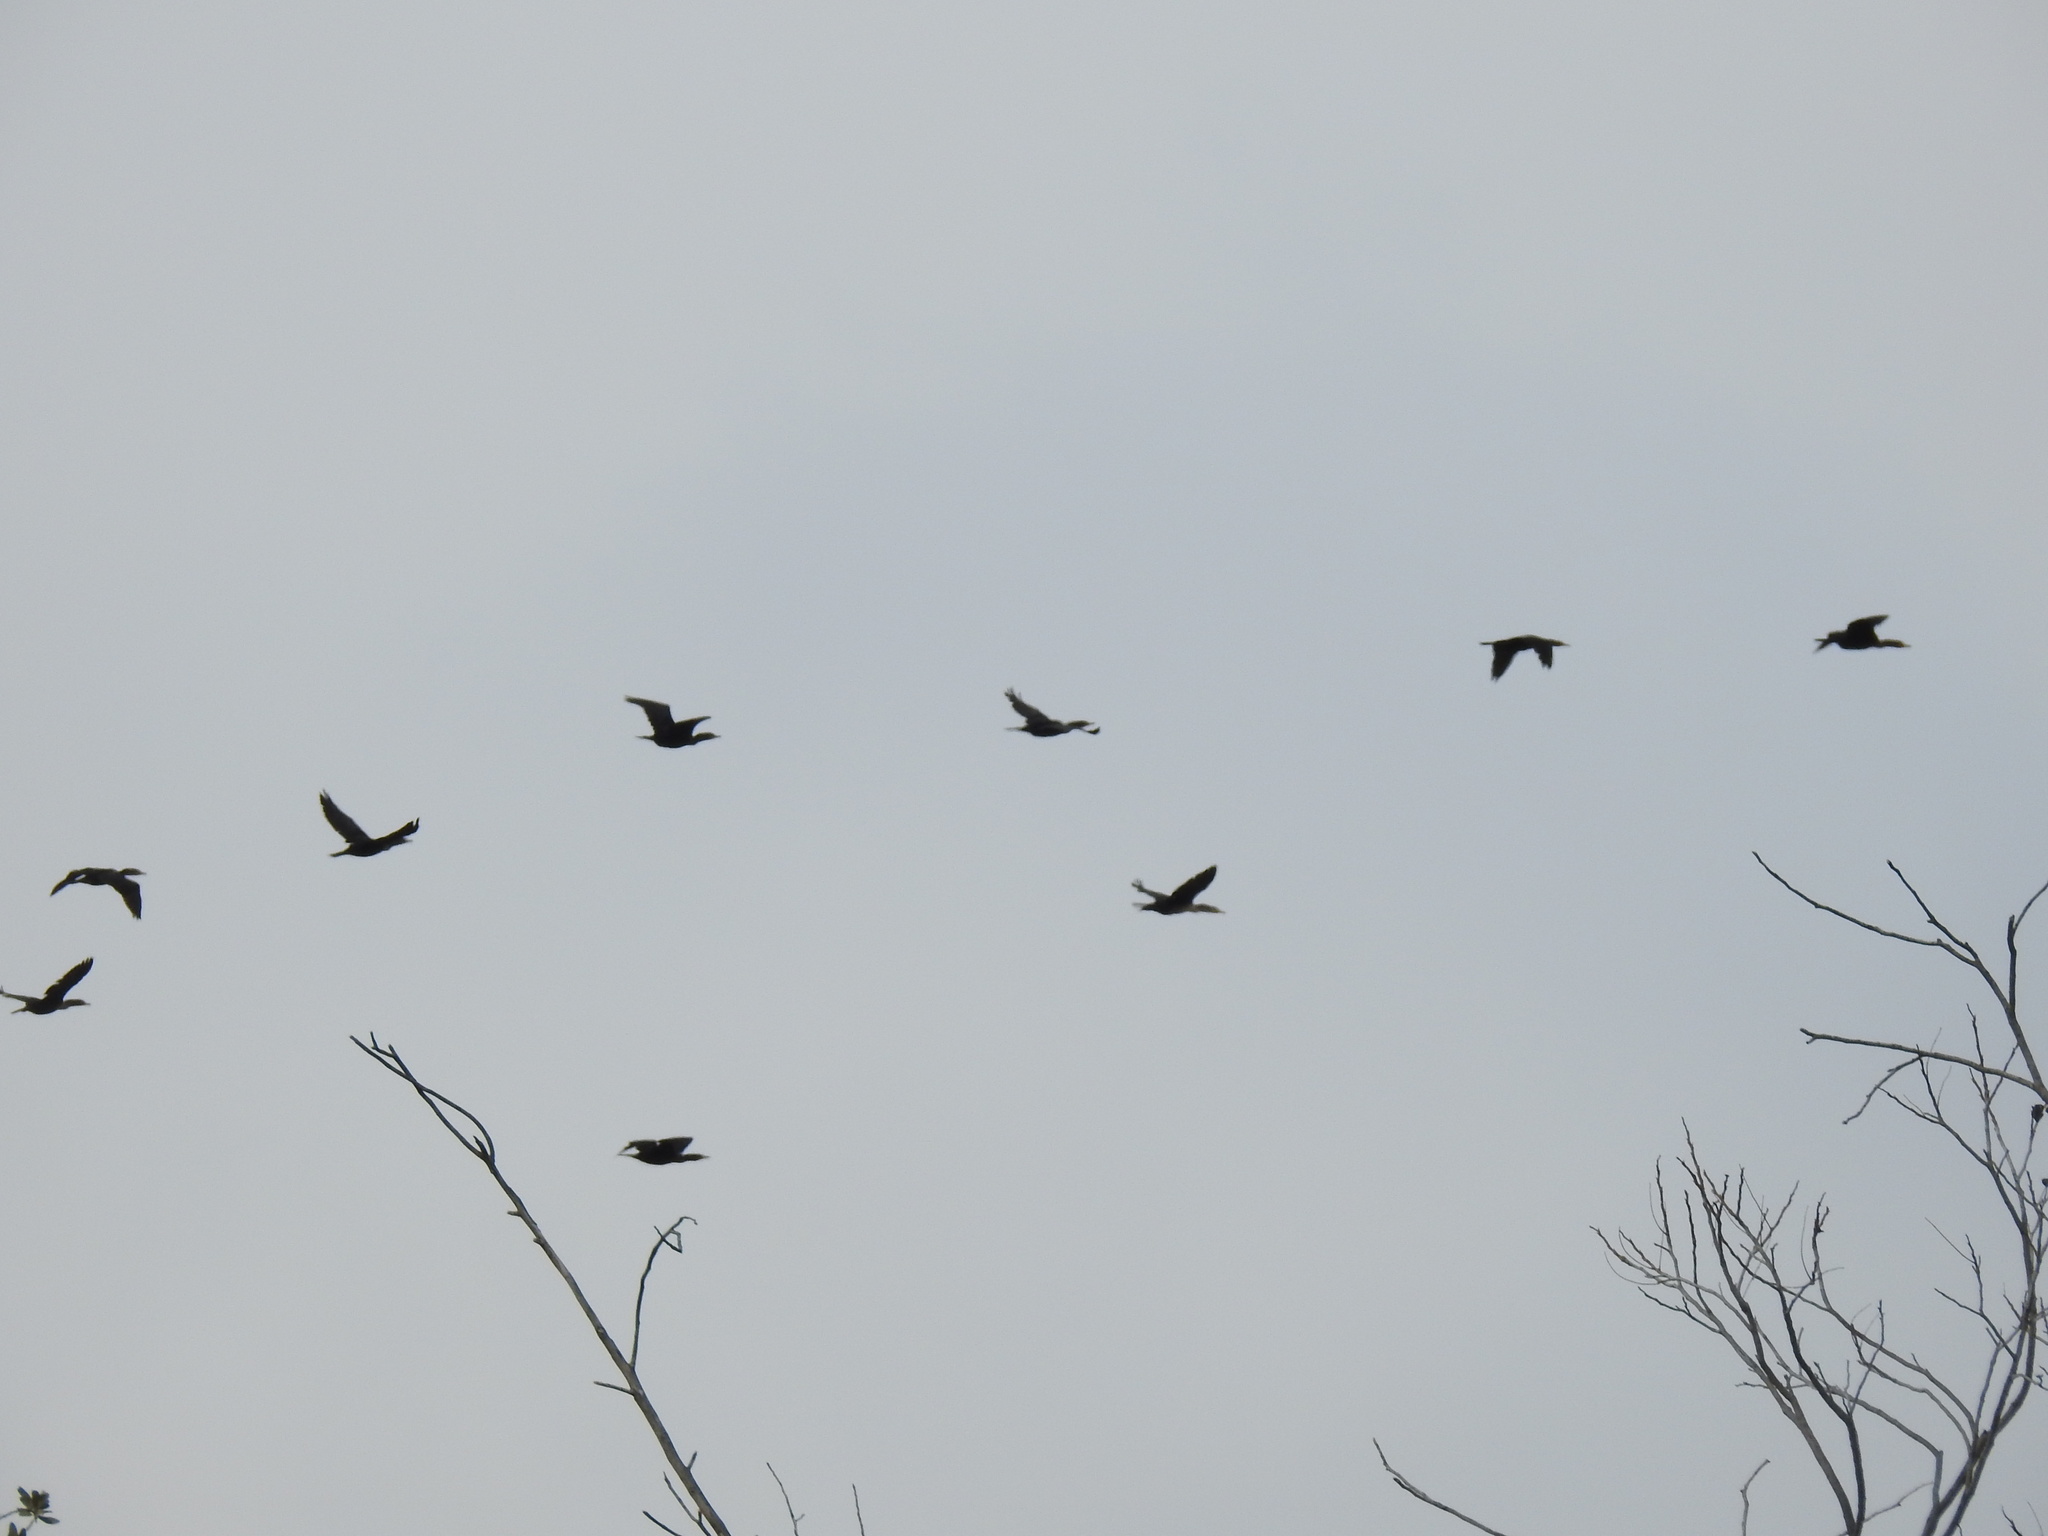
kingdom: Animalia
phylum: Chordata
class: Aves
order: Suliformes
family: Phalacrocoracidae
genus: Phalacrocorax
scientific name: Phalacrocorax auritus
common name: Double-crested cormorant
